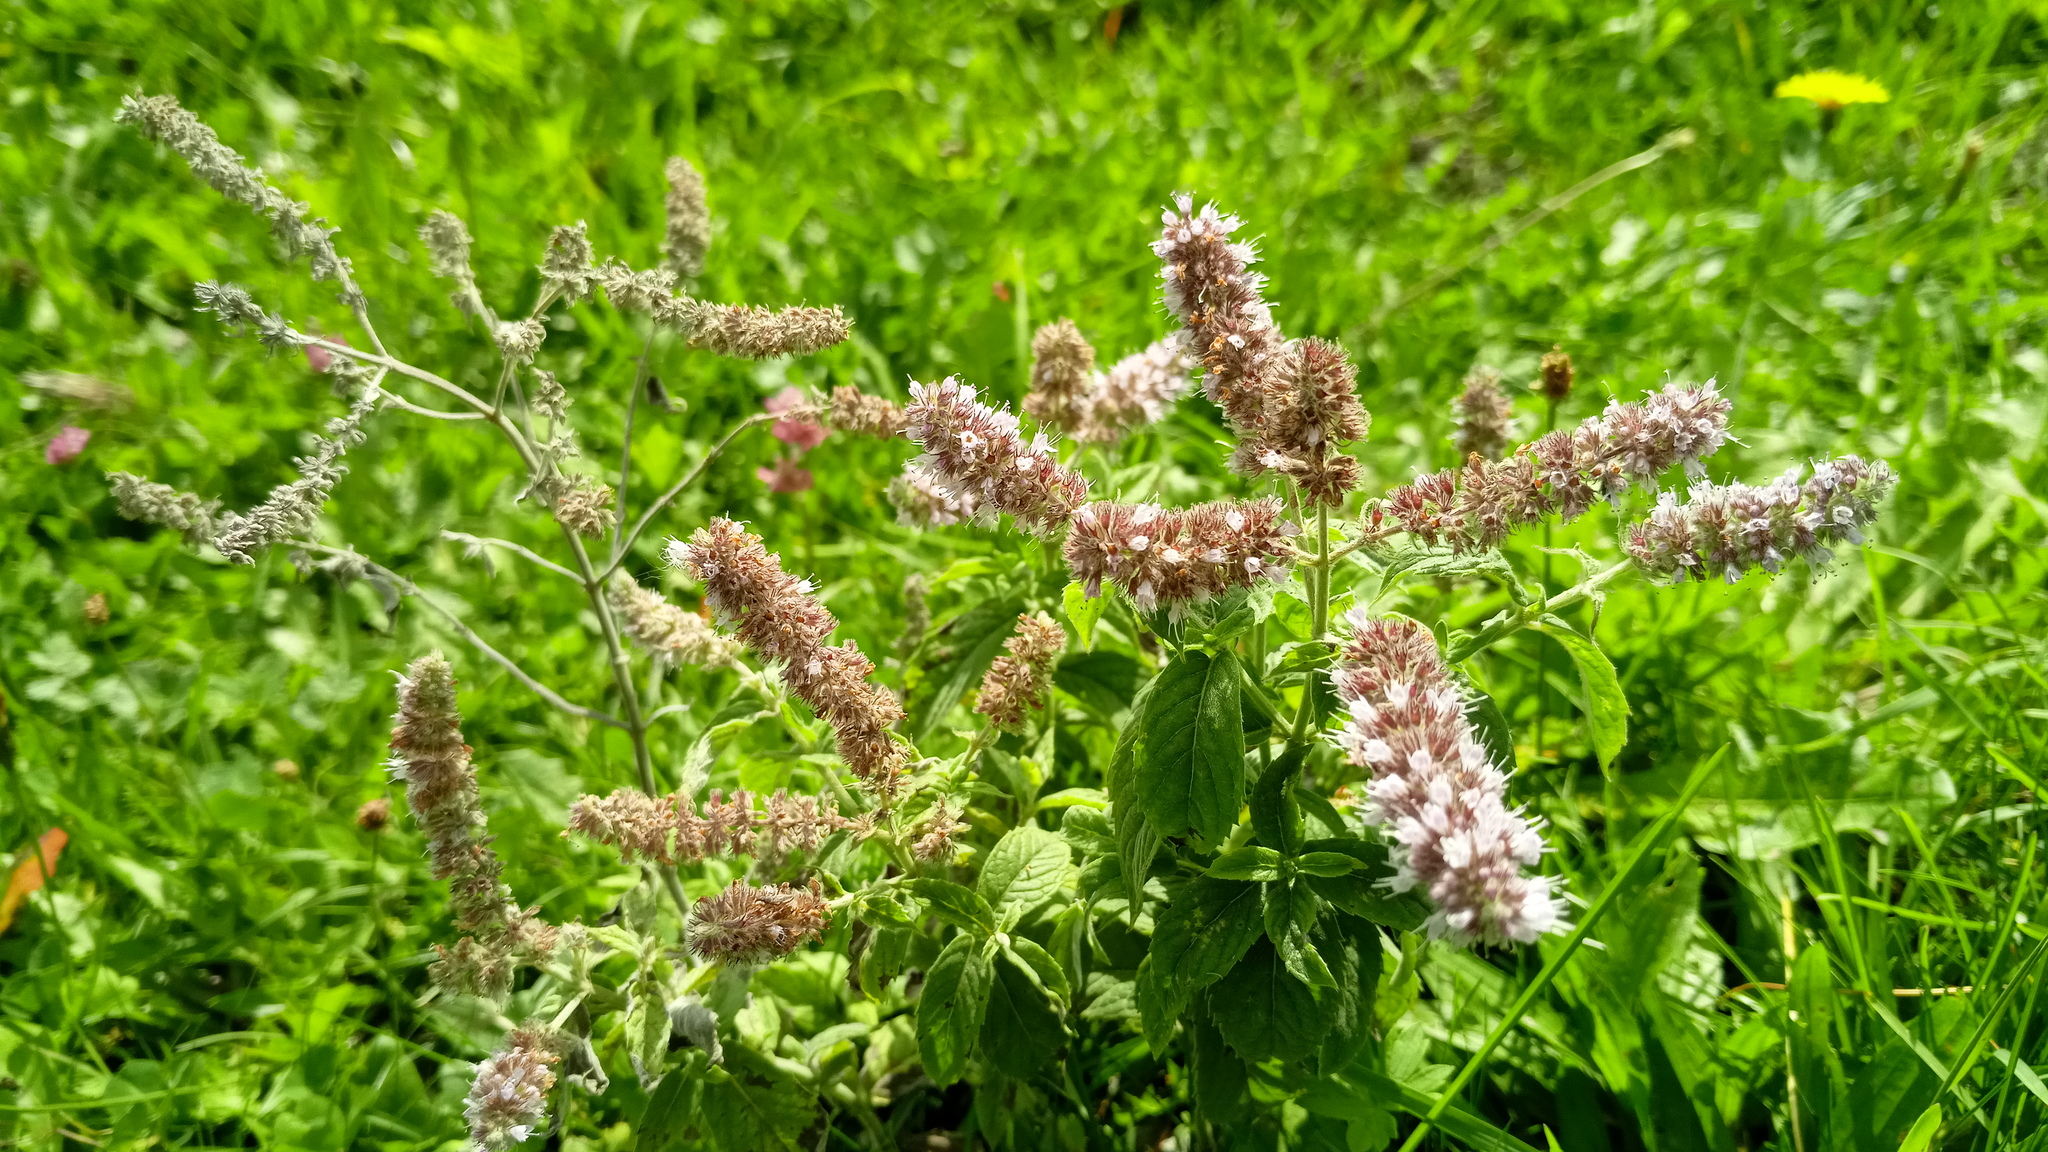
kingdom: Plantae
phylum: Tracheophyta
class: Magnoliopsida
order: Lamiales
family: Lamiaceae
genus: Mentha
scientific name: Mentha longifolia
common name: Horse mint
